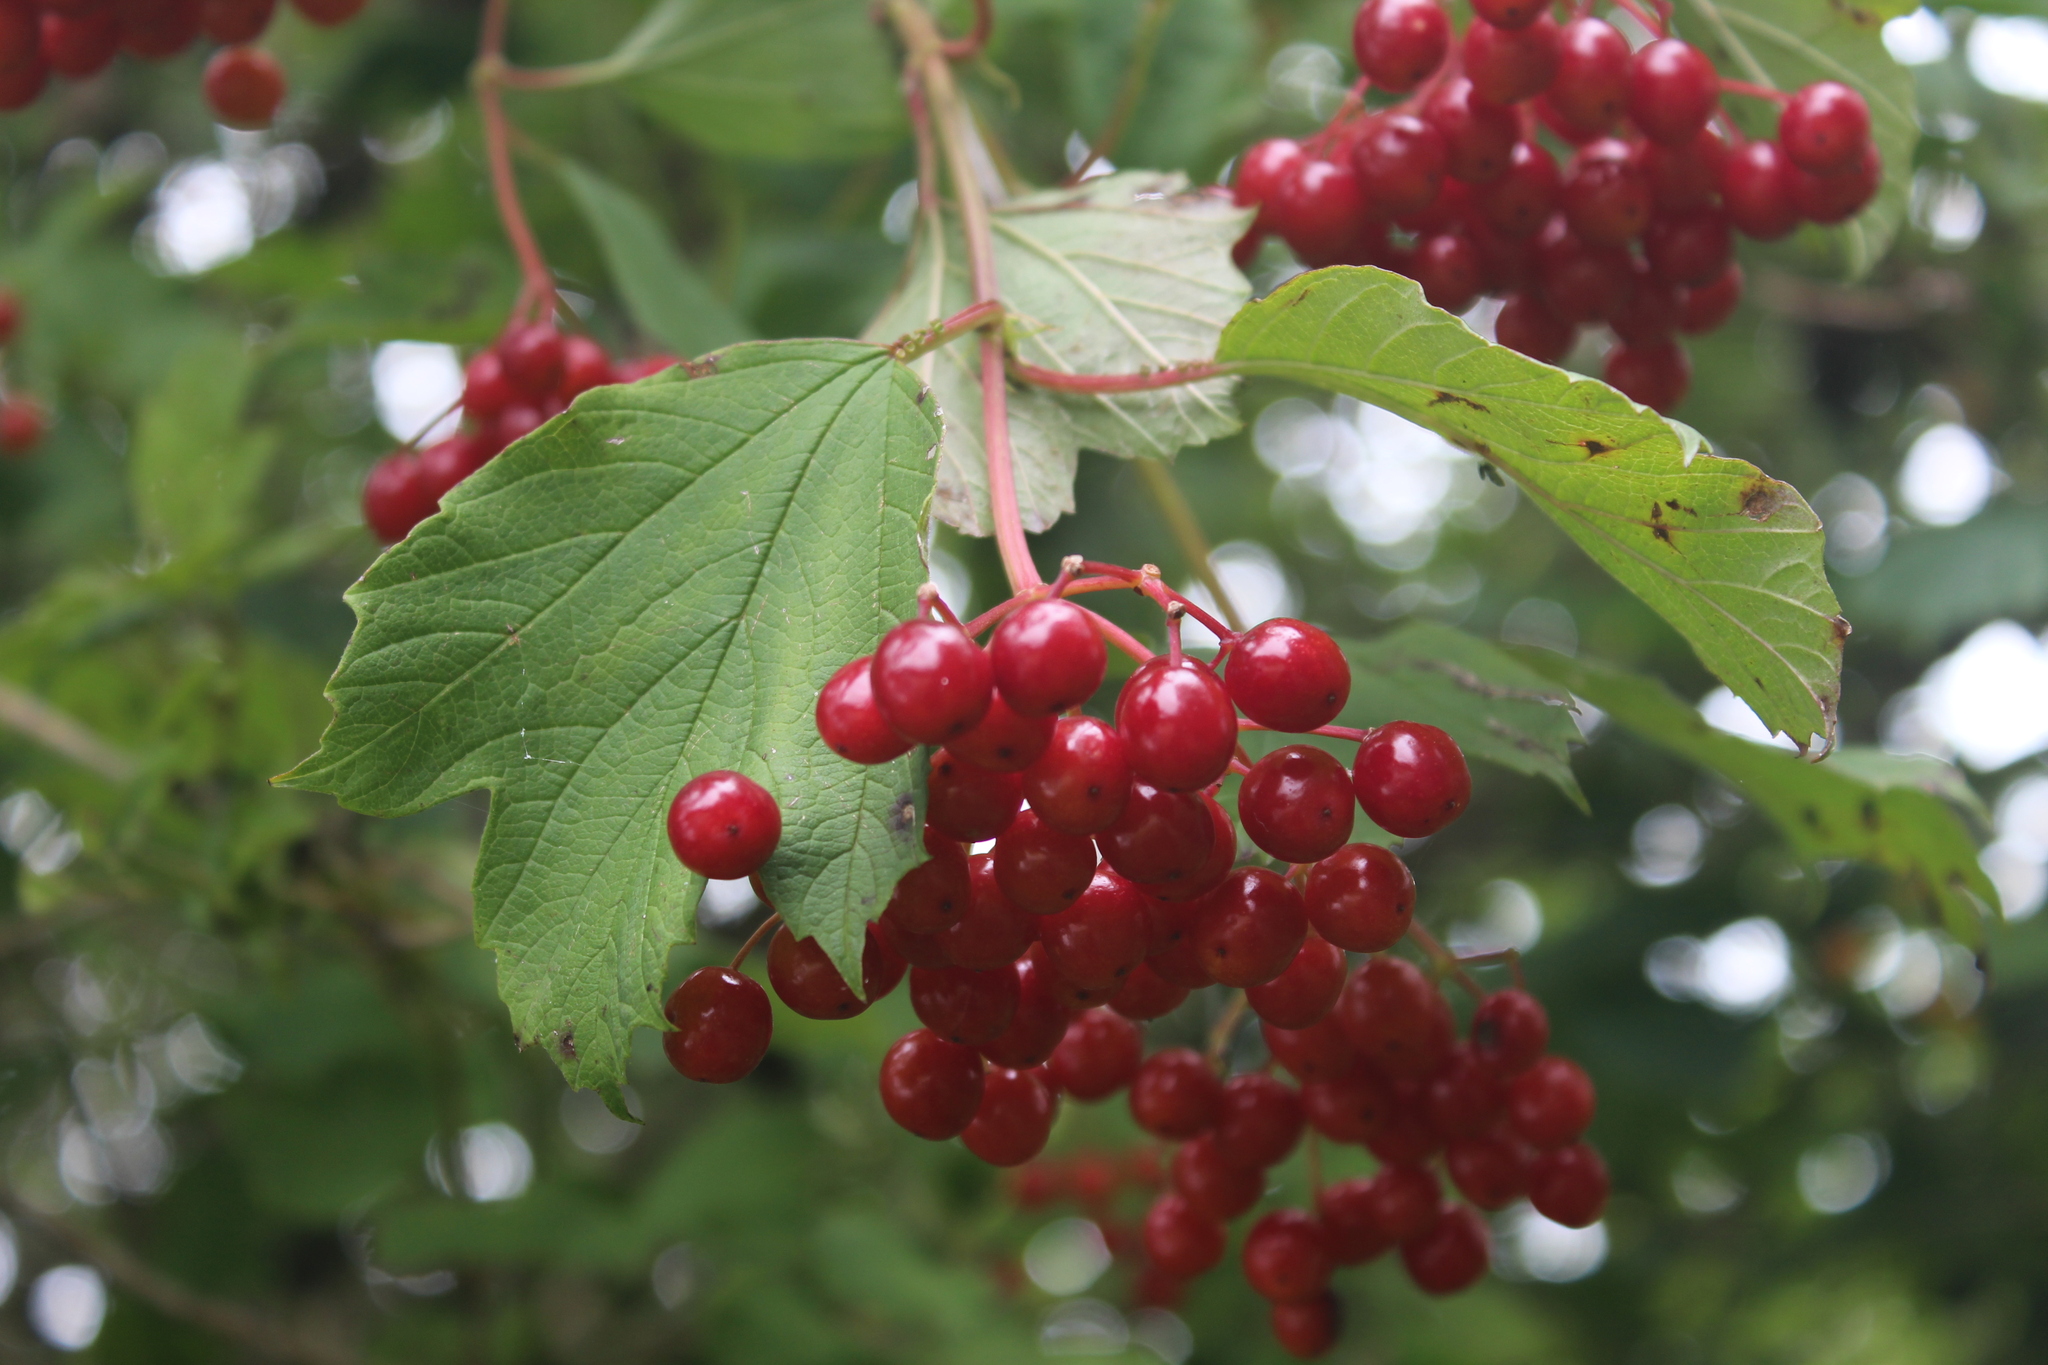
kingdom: Plantae
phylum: Tracheophyta
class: Magnoliopsida
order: Dipsacales
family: Viburnaceae
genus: Viburnum
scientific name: Viburnum opulus
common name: Guelder-rose
